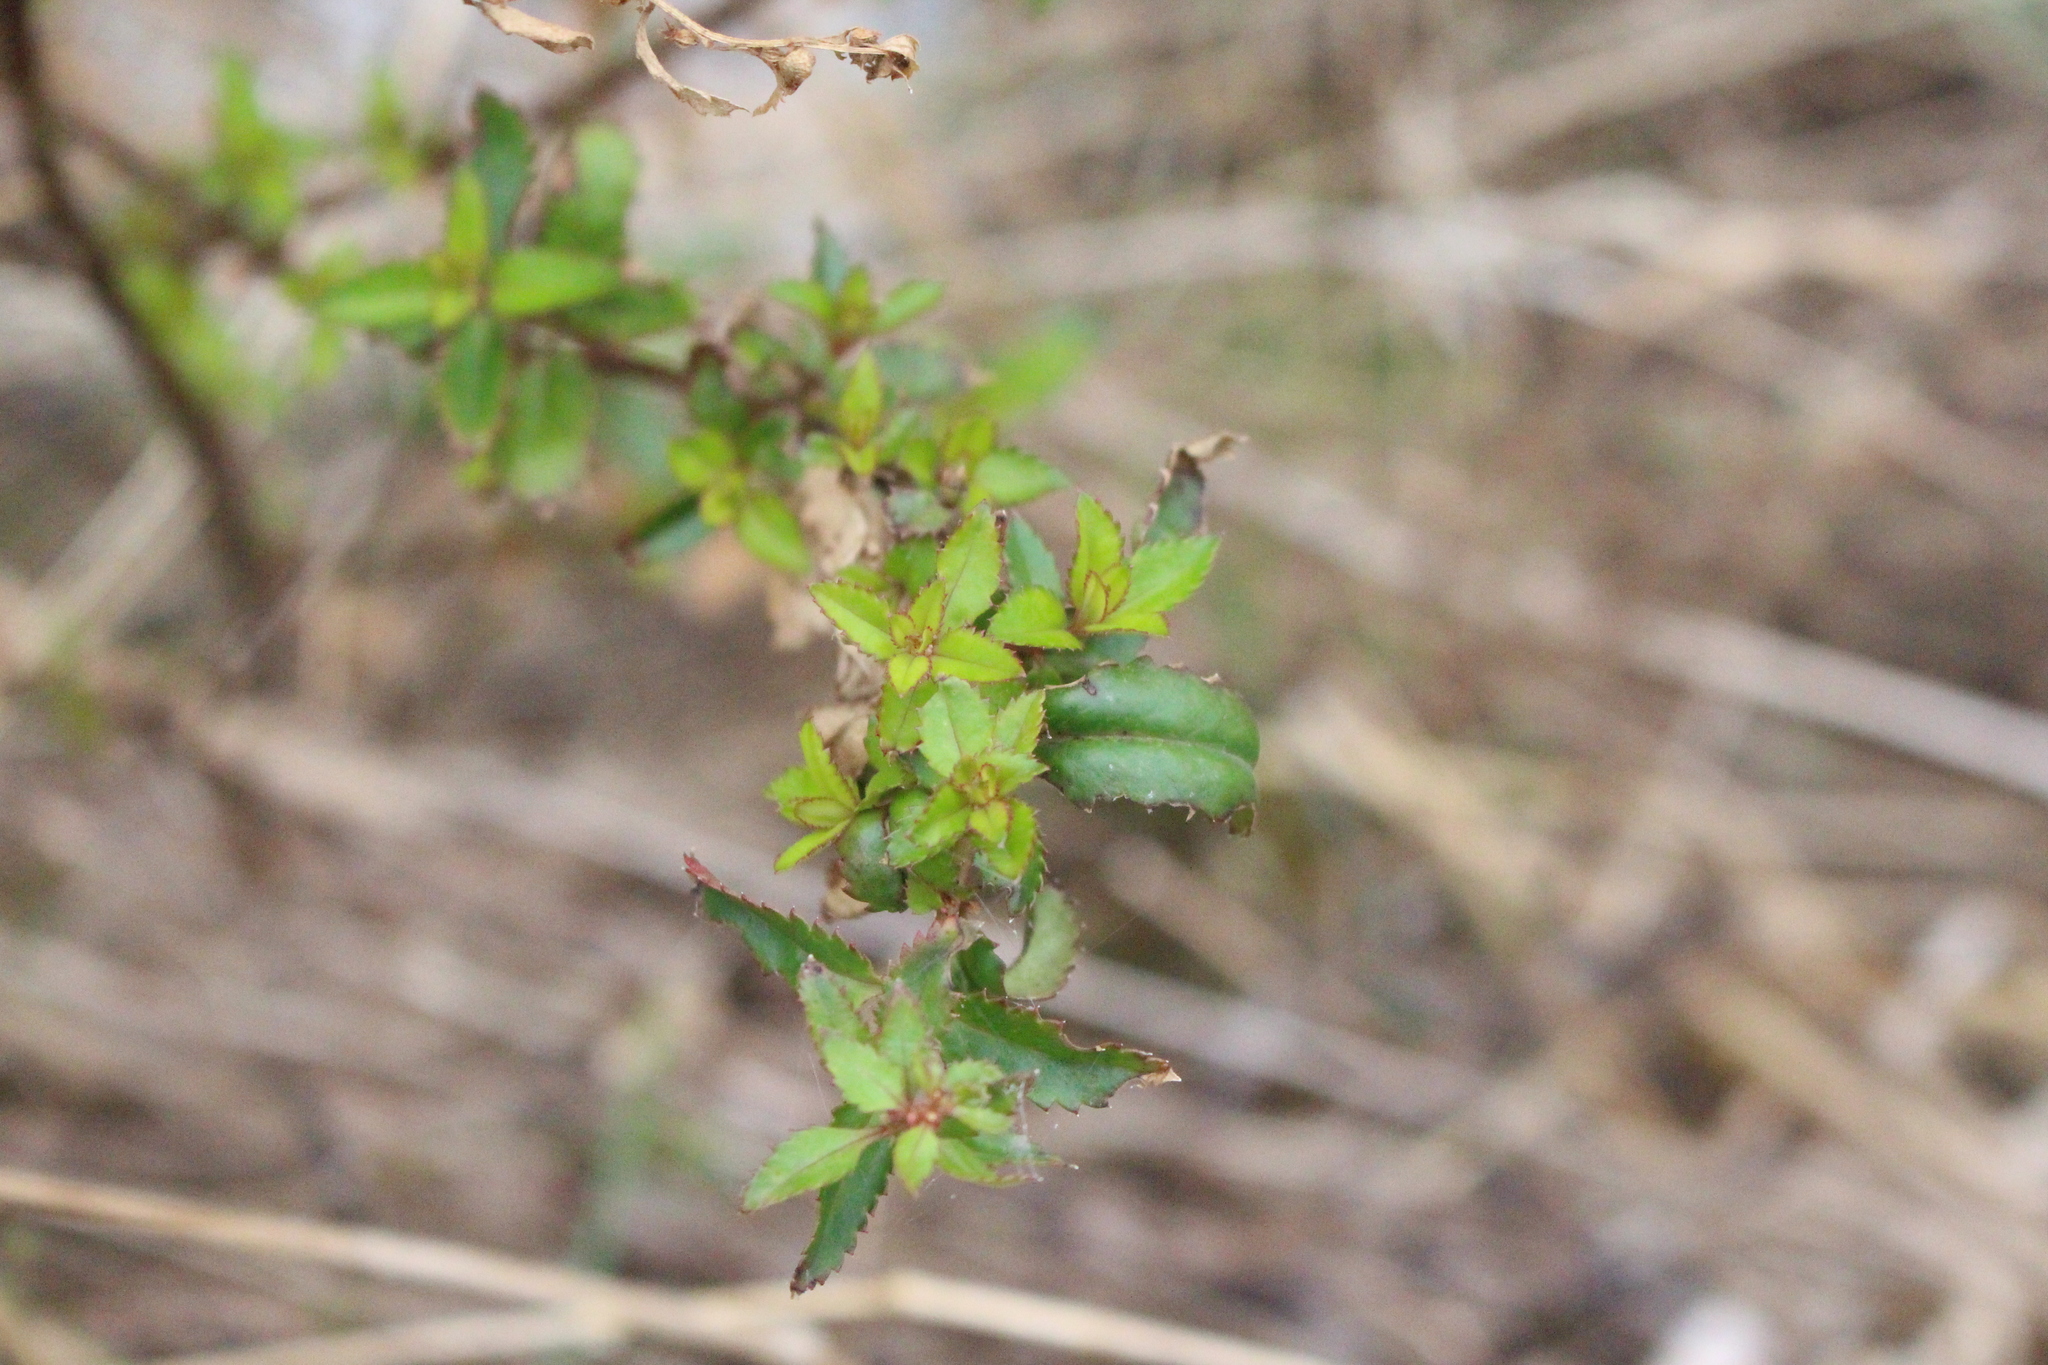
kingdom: Plantae
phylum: Tracheophyta
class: Magnoliopsida
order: Saxifragales
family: Haloragaceae
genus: Haloragis
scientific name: Haloragis erecta
